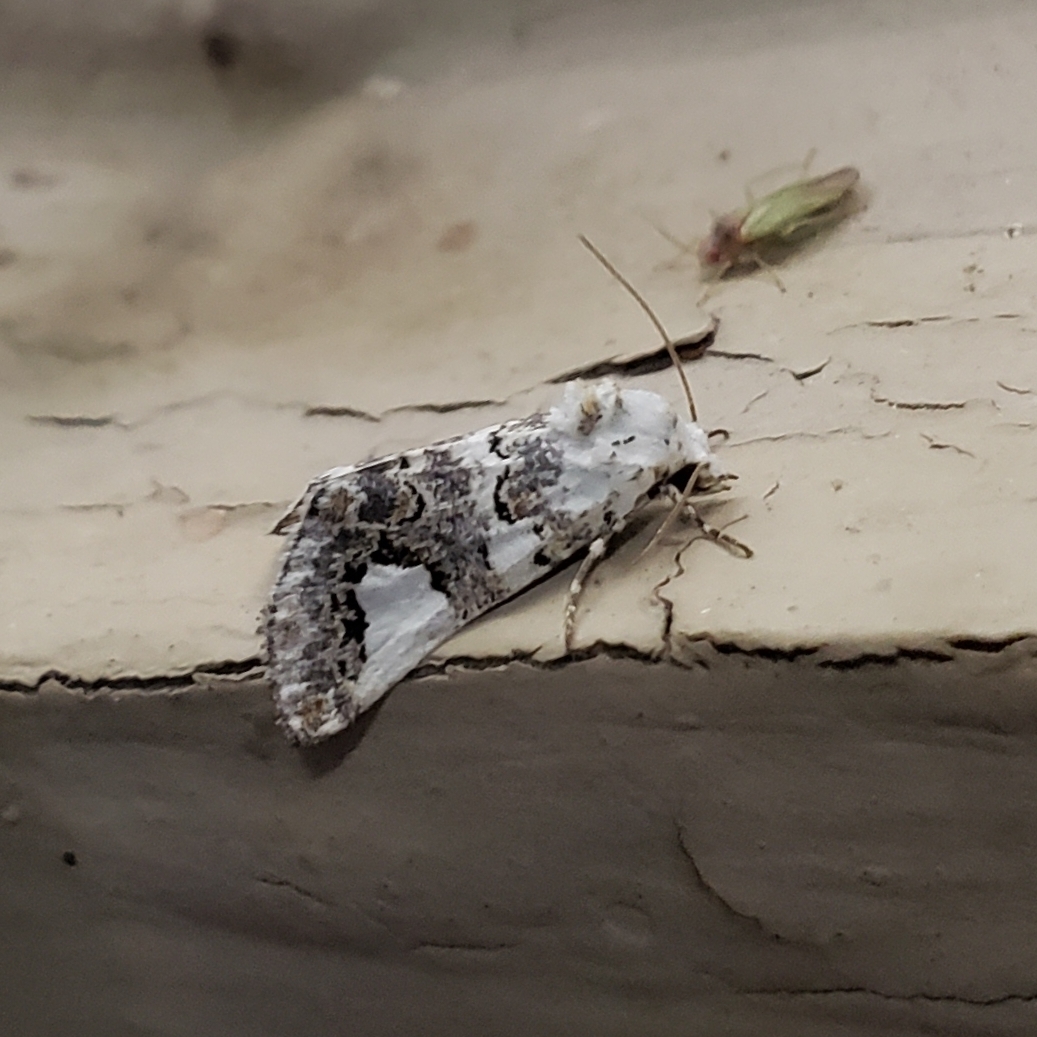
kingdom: Animalia
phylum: Arthropoda
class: Insecta
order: Lepidoptera
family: Noctuidae
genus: Tristyla
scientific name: Tristyla alboplagiata
